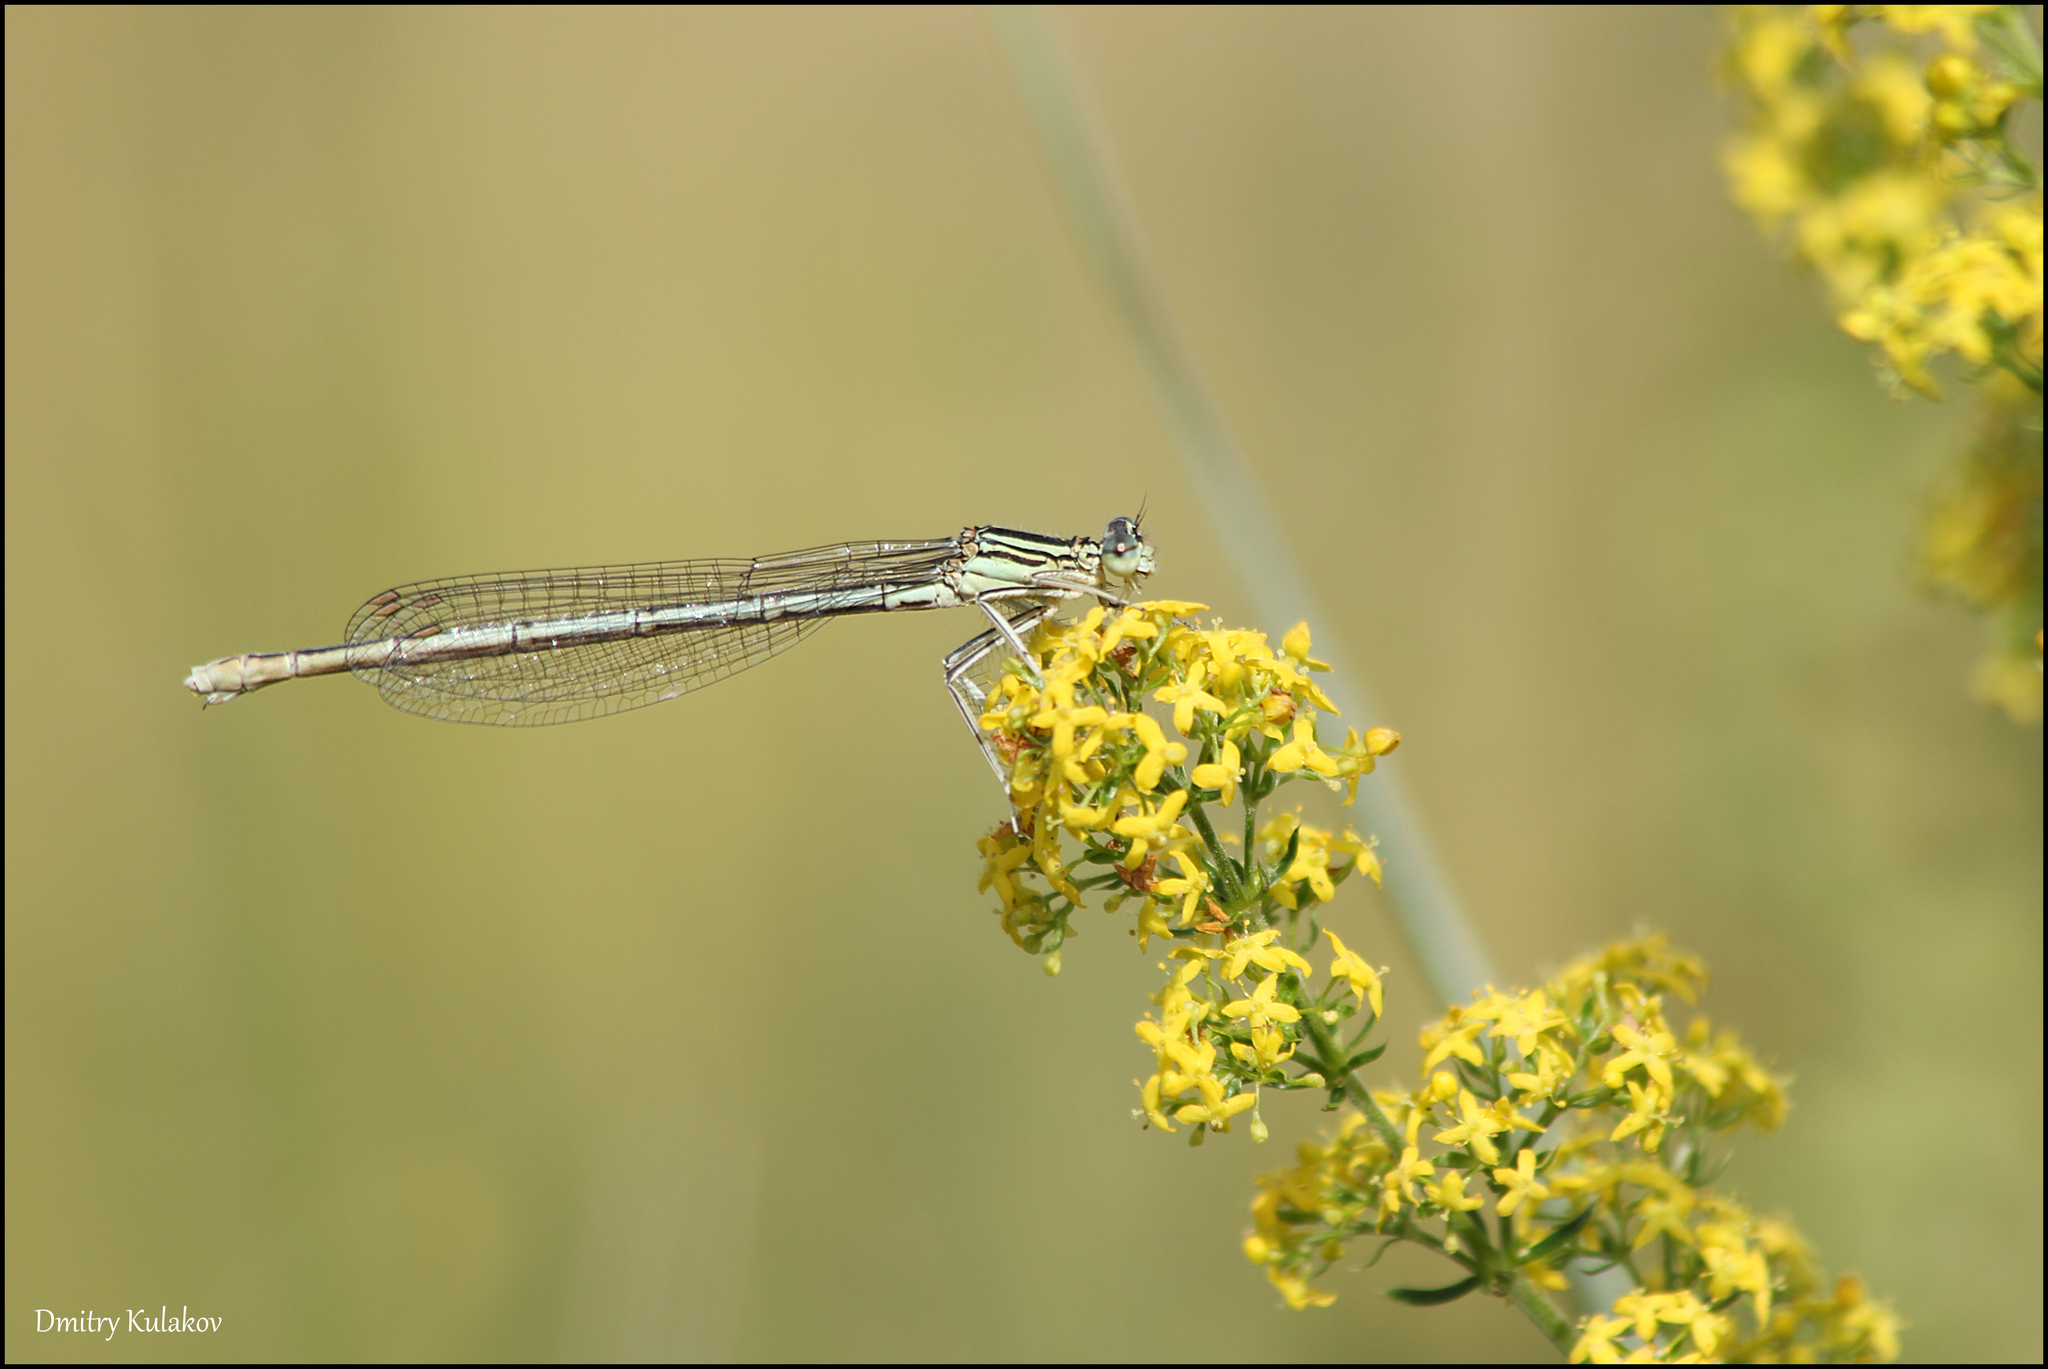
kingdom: Animalia
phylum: Arthropoda
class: Insecta
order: Odonata
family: Platycnemididae
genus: Platycnemis
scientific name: Platycnemis pennipes
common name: White-legged damselfly
